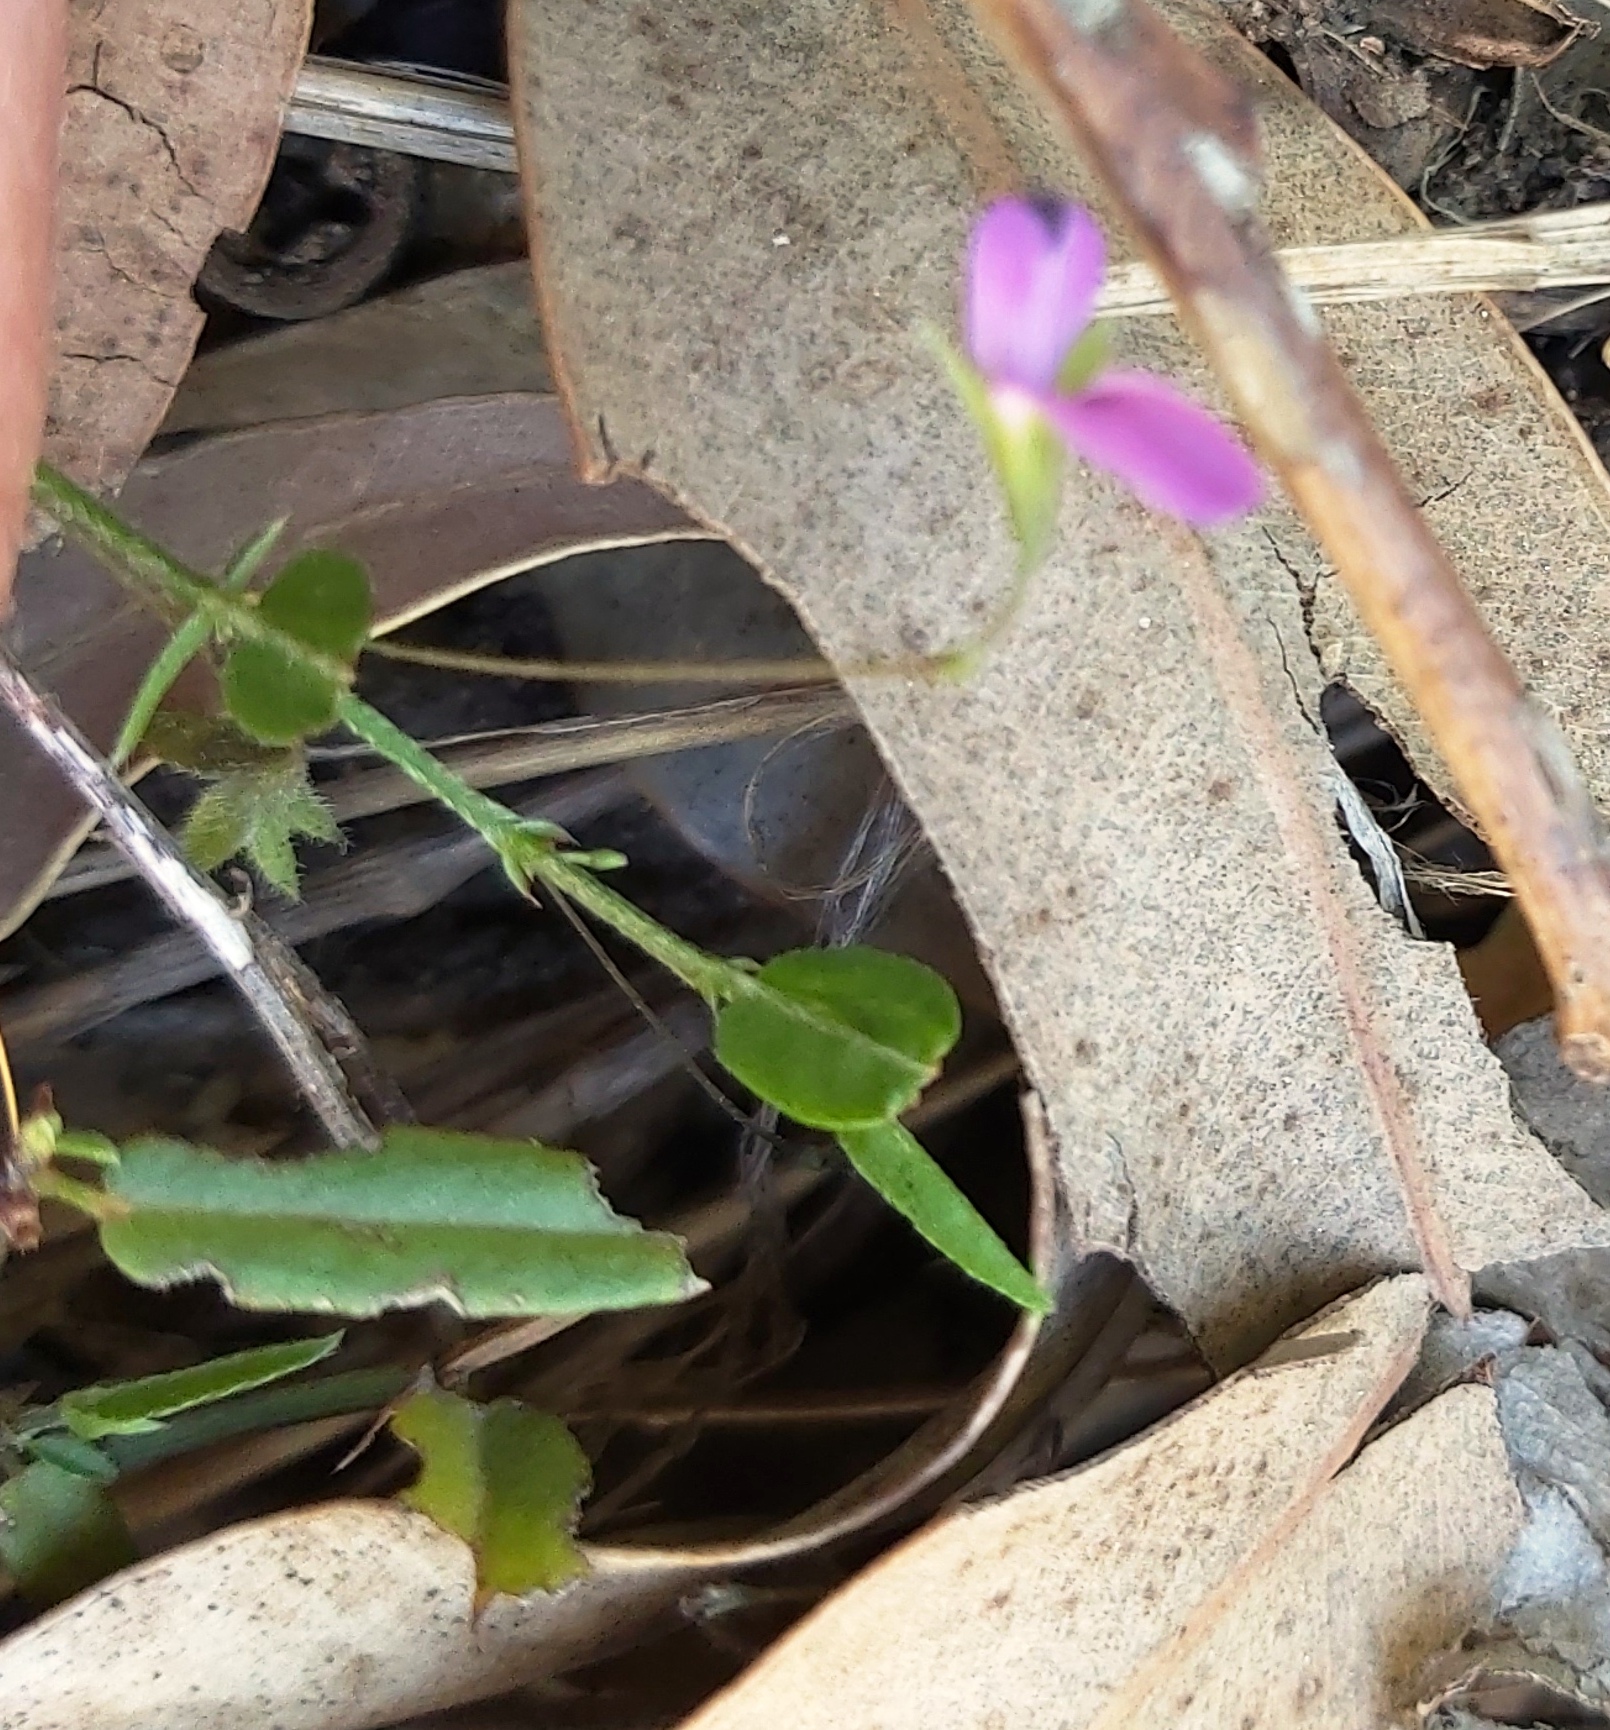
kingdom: Plantae
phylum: Tracheophyta
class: Magnoliopsida
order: Fabales
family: Fabaceae
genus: Psoralea
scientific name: Psoralea laxa
